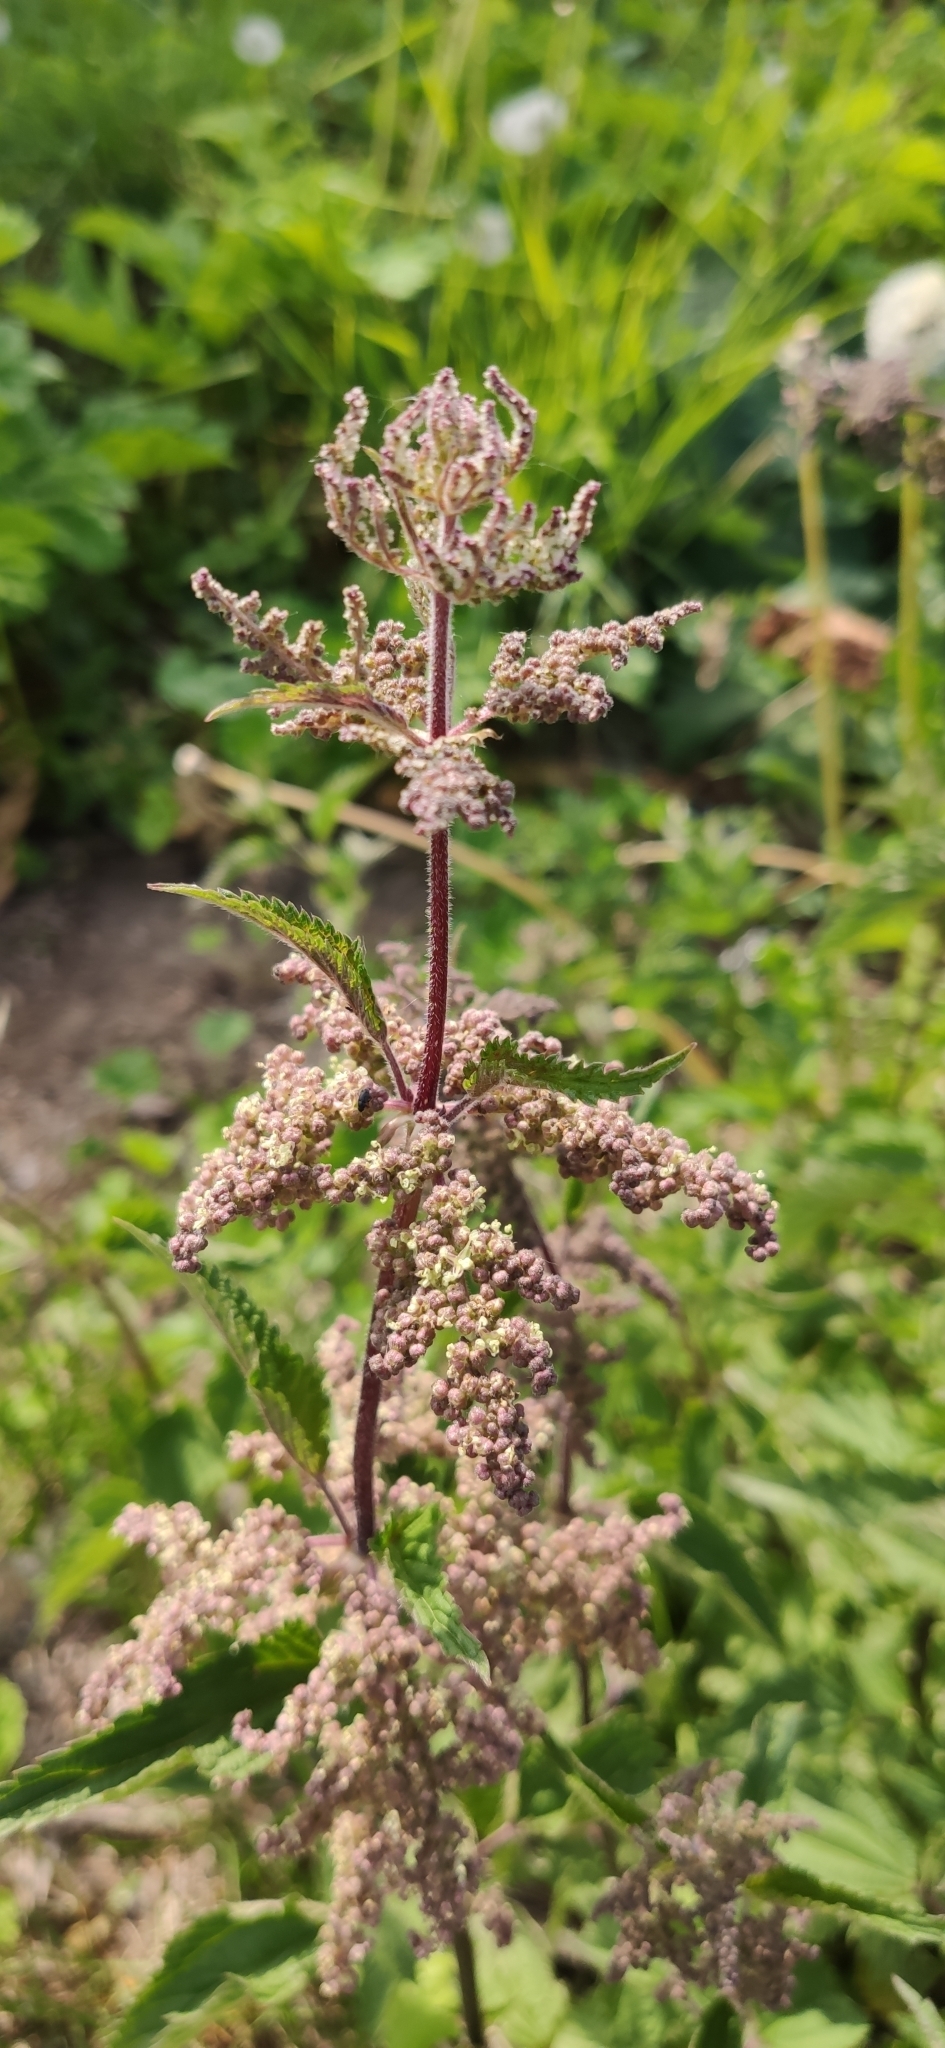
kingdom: Plantae
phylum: Tracheophyta
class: Magnoliopsida
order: Rosales
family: Urticaceae
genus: Urtica
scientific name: Urtica dioica
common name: Common nettle
